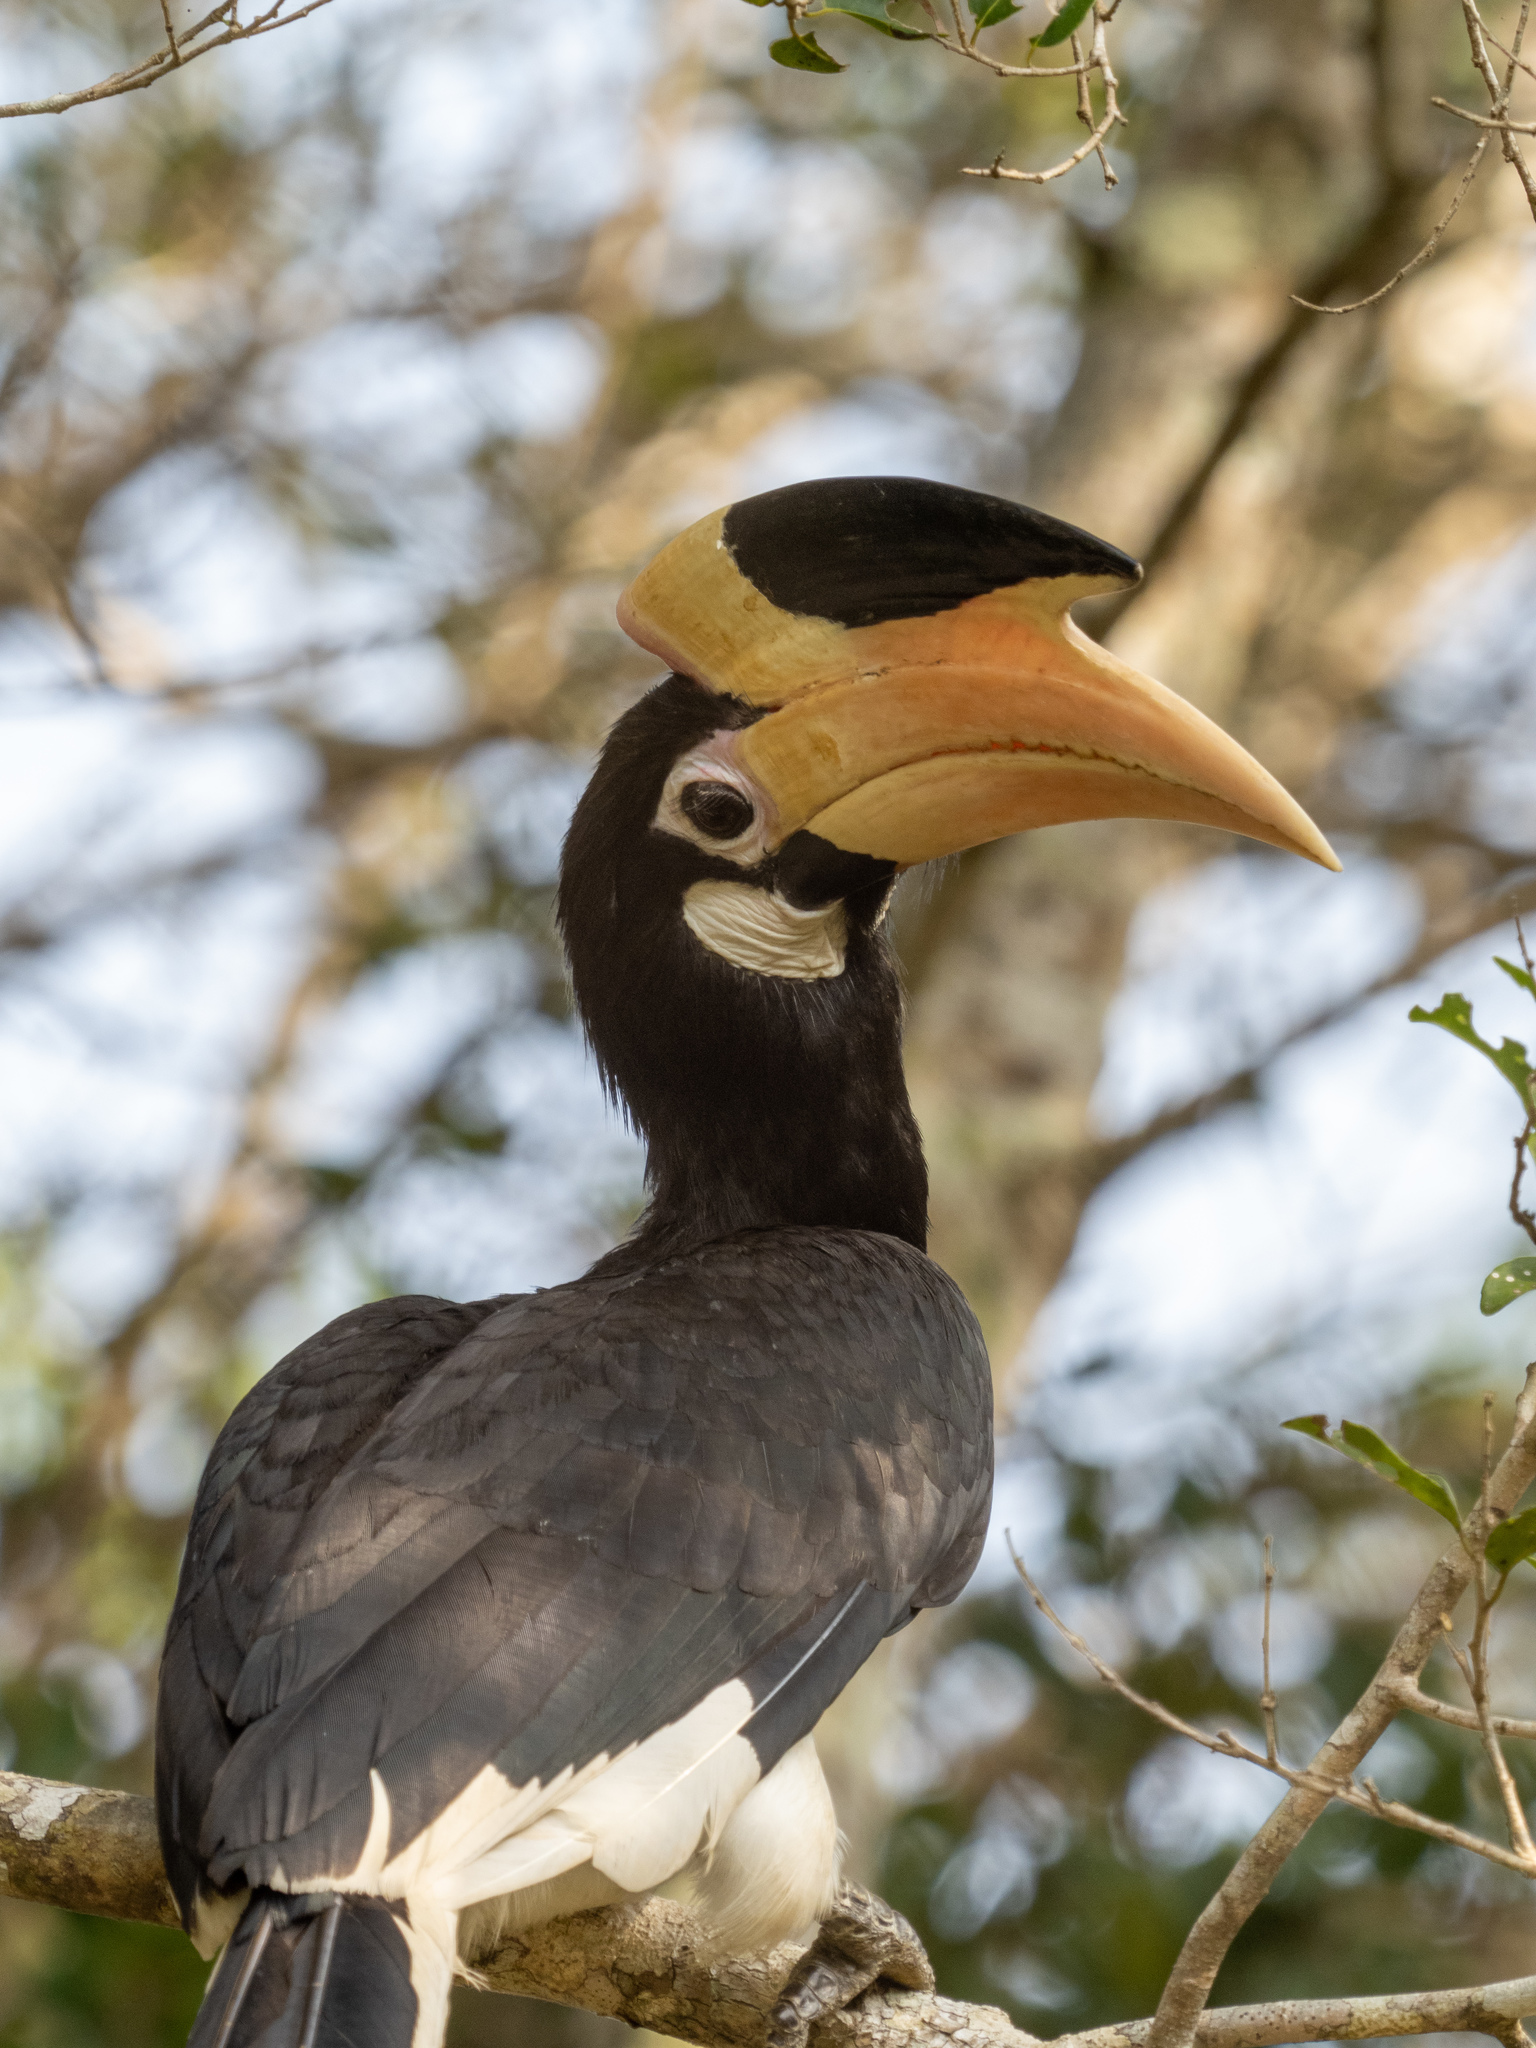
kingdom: Animalia
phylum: Chordata
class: Aves
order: Bucerotiformes
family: Bucerotidae
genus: Anthracoceros
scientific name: Anthracoceros coronatus
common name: Malabar pied hornbill
